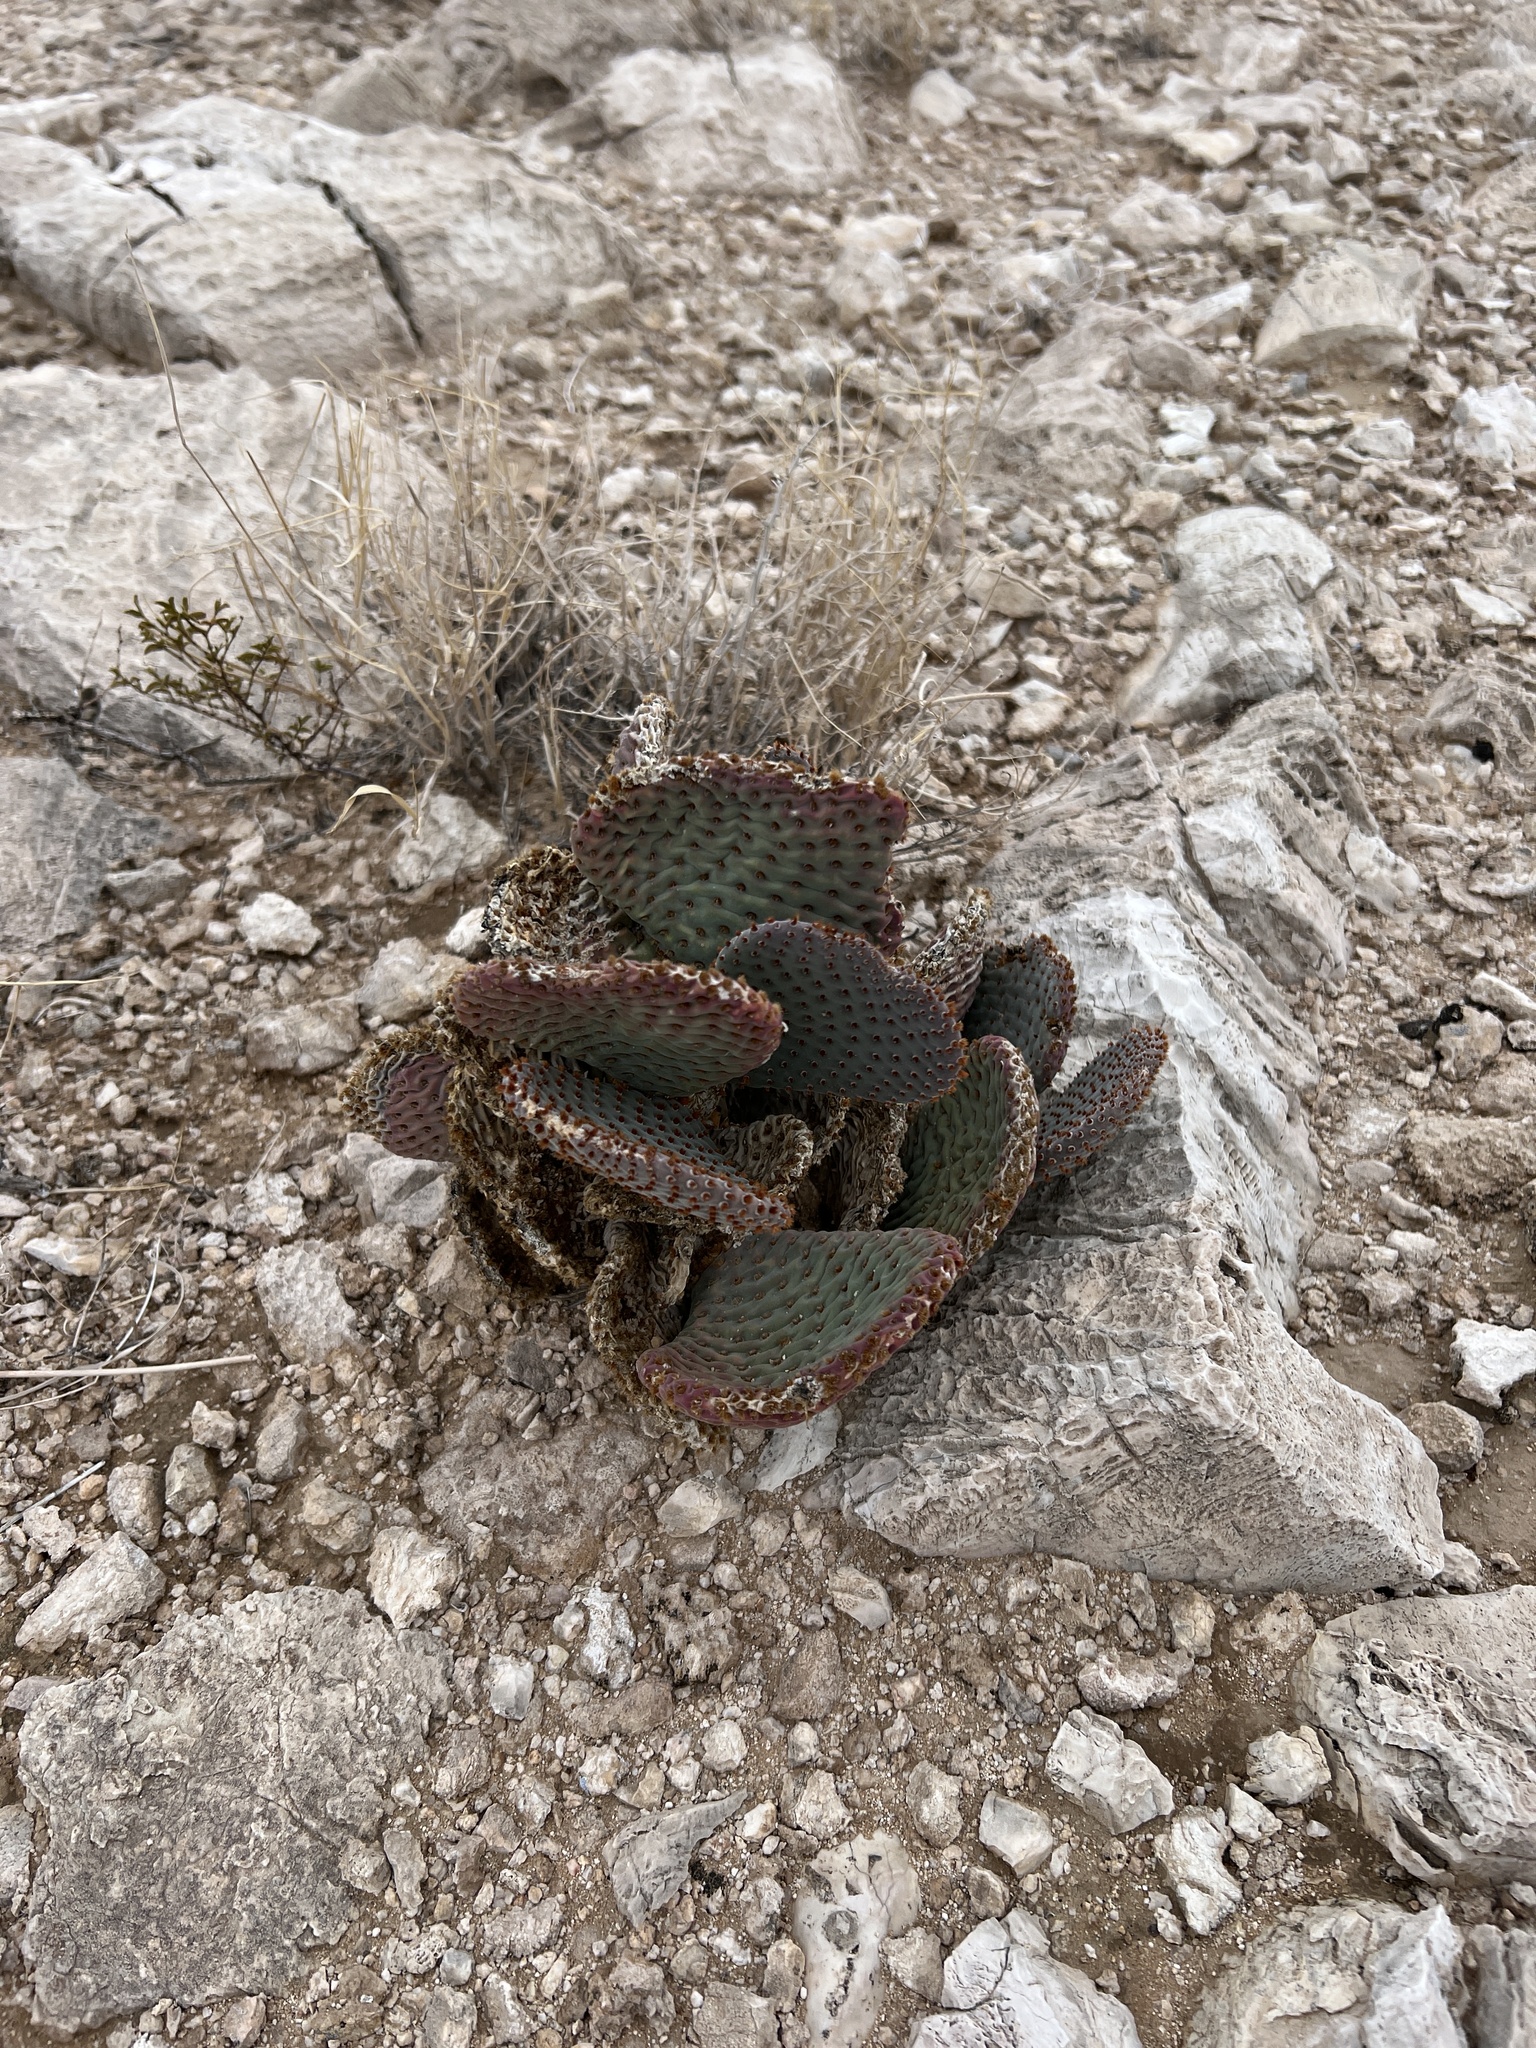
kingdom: Plantae
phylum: Tracheophyta
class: Magnoliopsida
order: Caryophyllales
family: Cactaceae
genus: Opuntia
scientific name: Opuntia basilaris
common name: Beavertail prickly-pear
